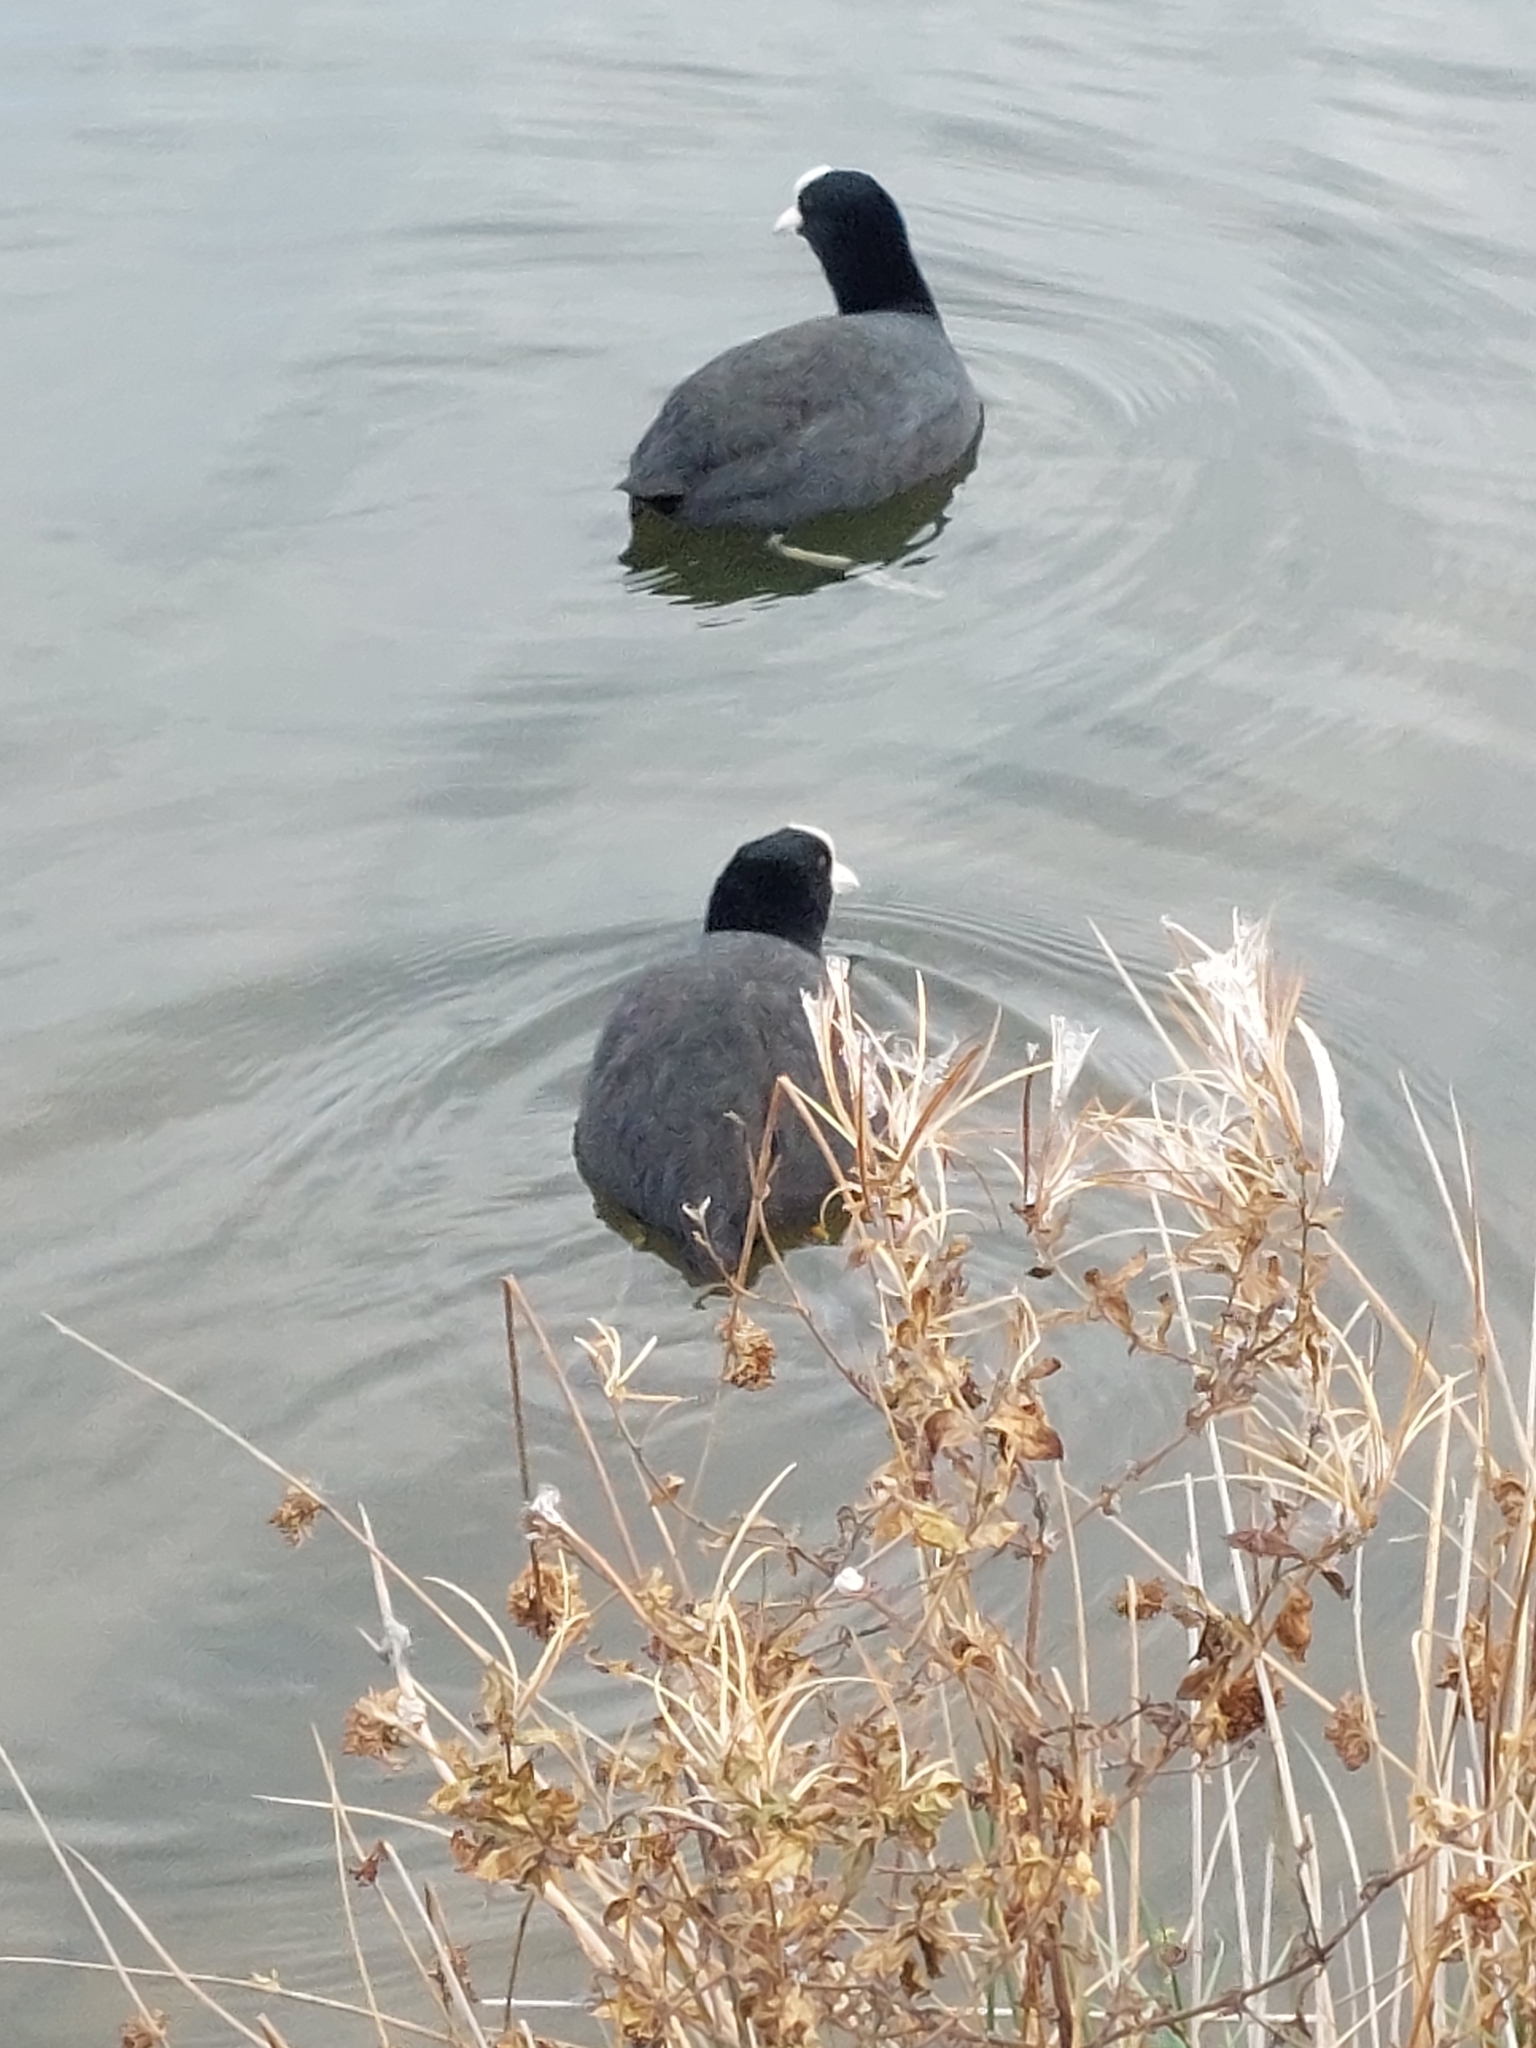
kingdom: Animalia
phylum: Chordata
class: Aves
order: Gruiformes
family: Rallidae
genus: Fulica
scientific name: Fulica atra
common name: Eurasian coot
